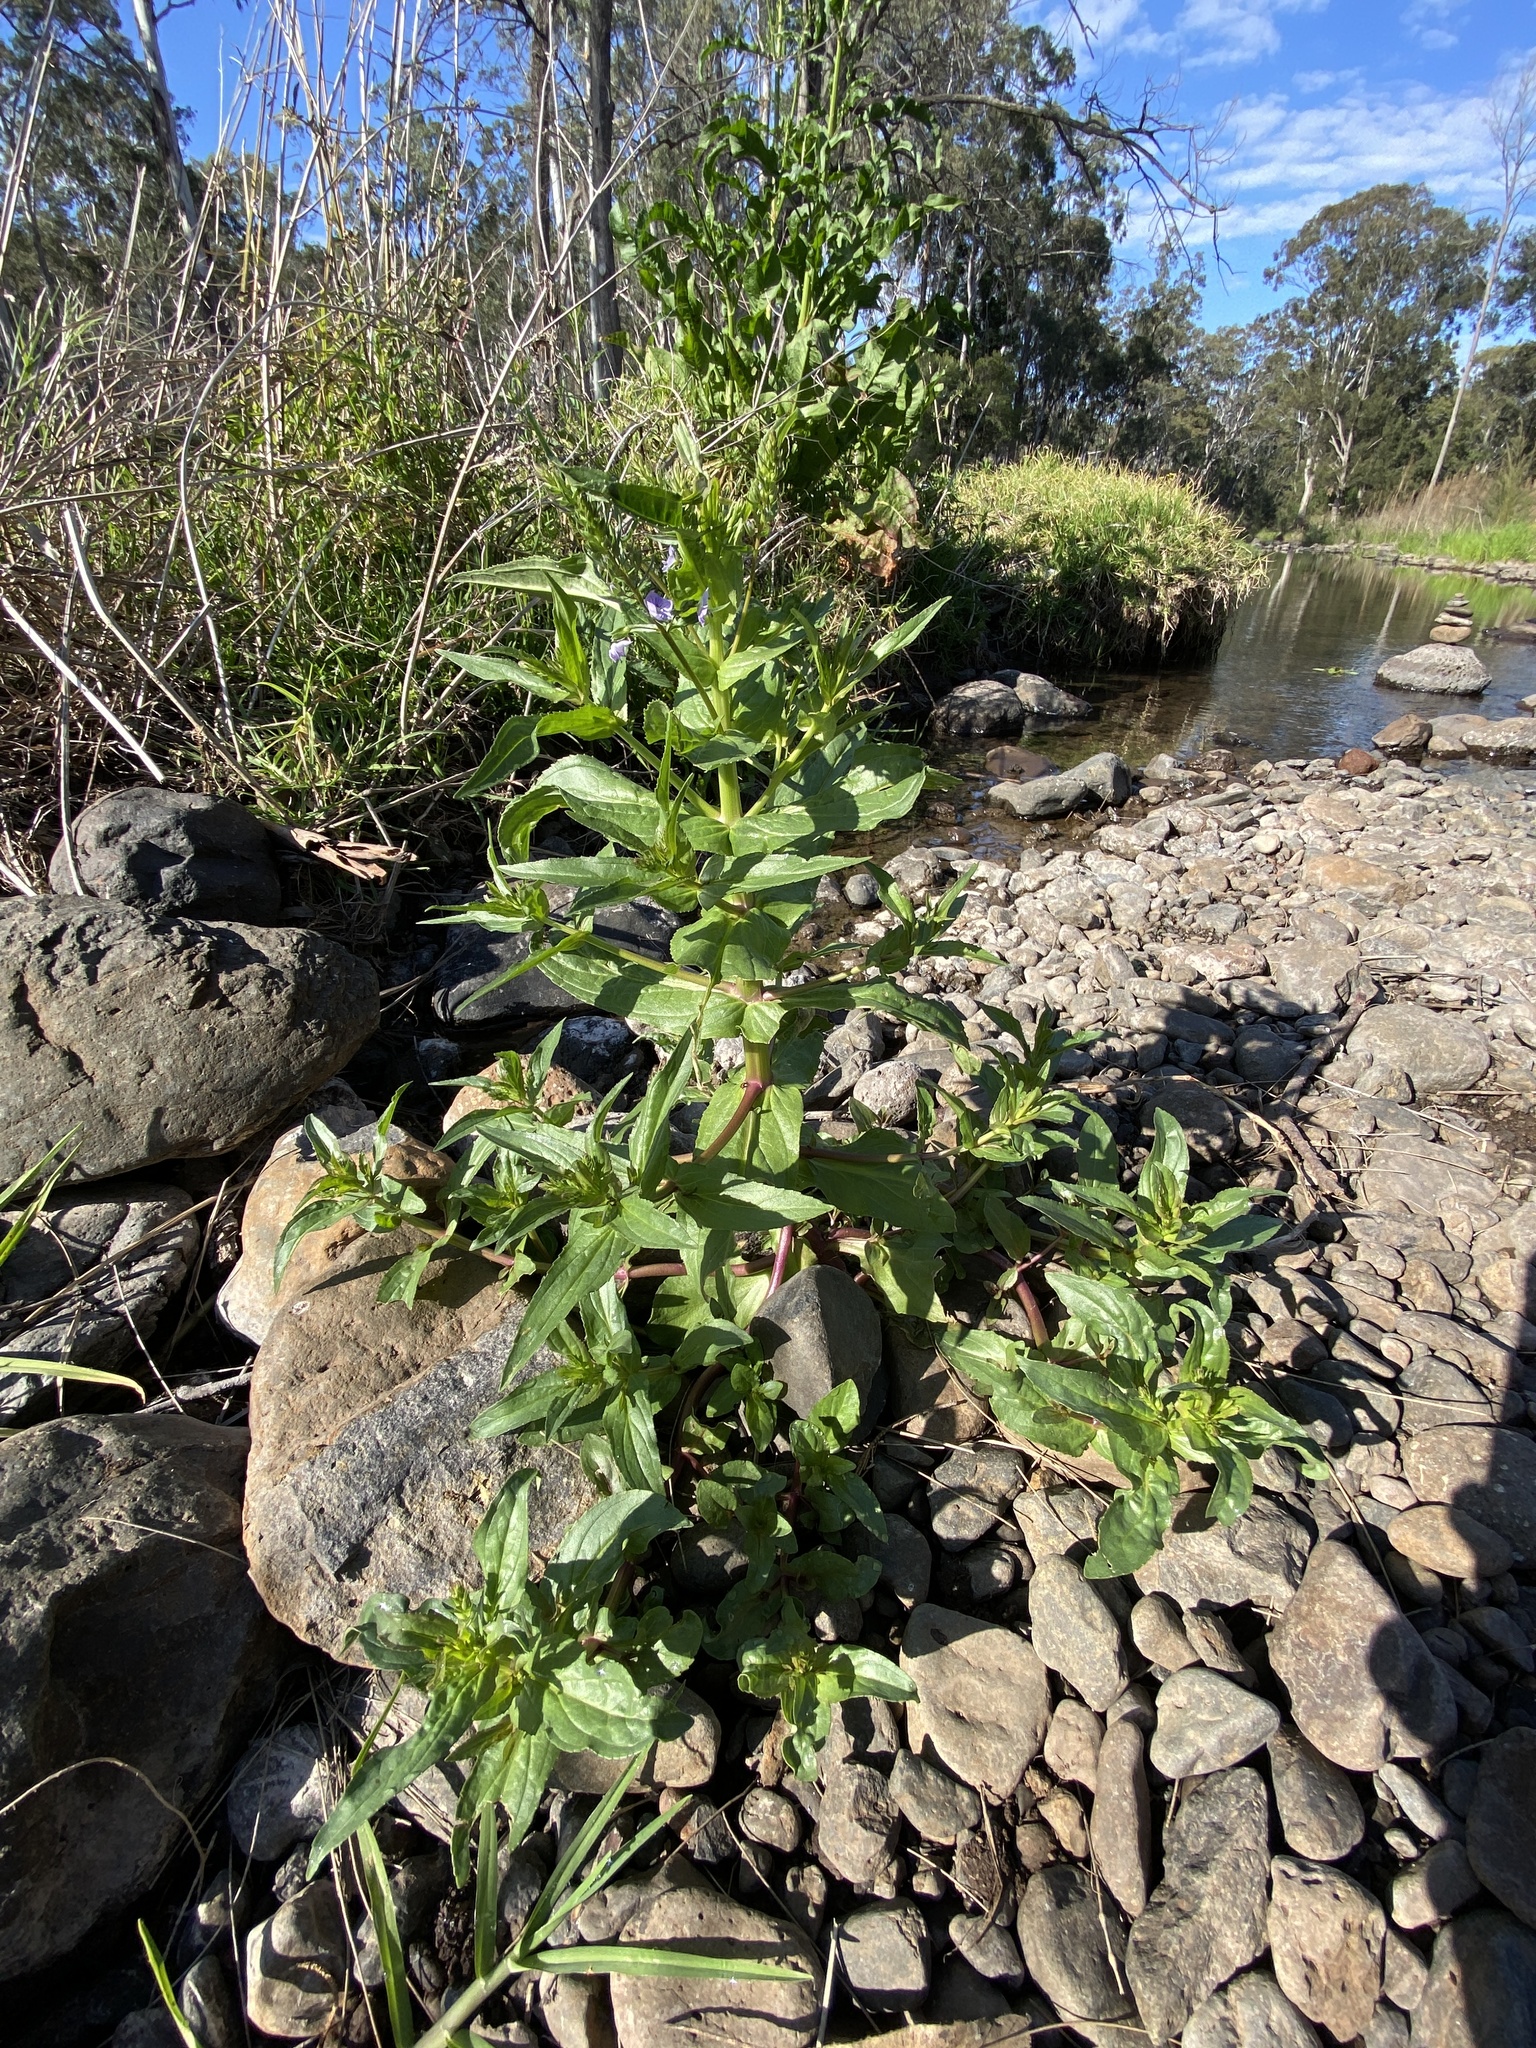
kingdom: Plantae
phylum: Tracheophyta
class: Magnoliopsida
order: Lamiales
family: Plantaginaceae
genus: Veronica
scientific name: Veronica anagallis-aquatica
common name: Water speedwell
